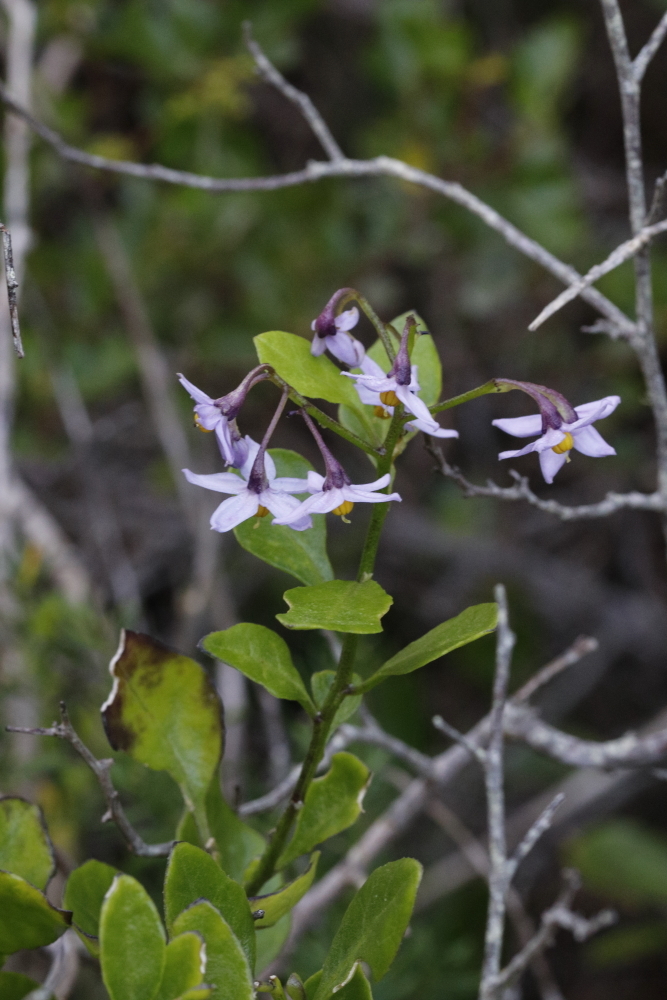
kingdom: Plantae
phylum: Tracheophyta
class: Magnoliopsida
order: Solanales
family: Solanaceae
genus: Solanum
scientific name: Solanum africanum
